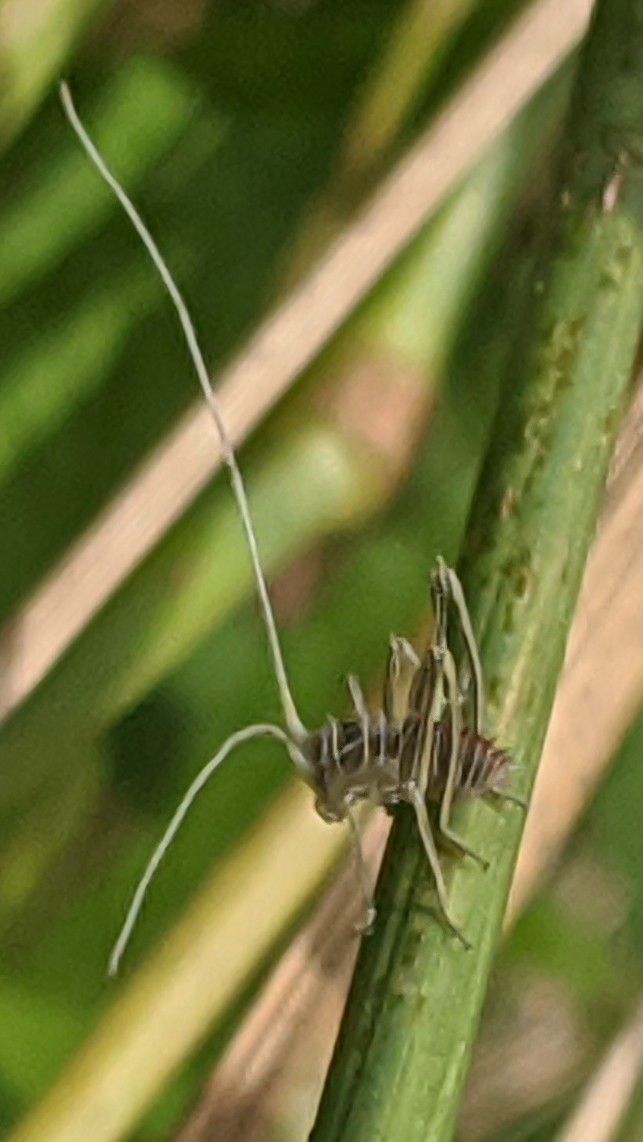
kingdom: Animalia
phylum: Arthropoda
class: Insecta
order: Orthoptera
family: Tettigoniidae
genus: Tylopsis
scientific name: Tylopsis lilifolia
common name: Lily bush-cricket
